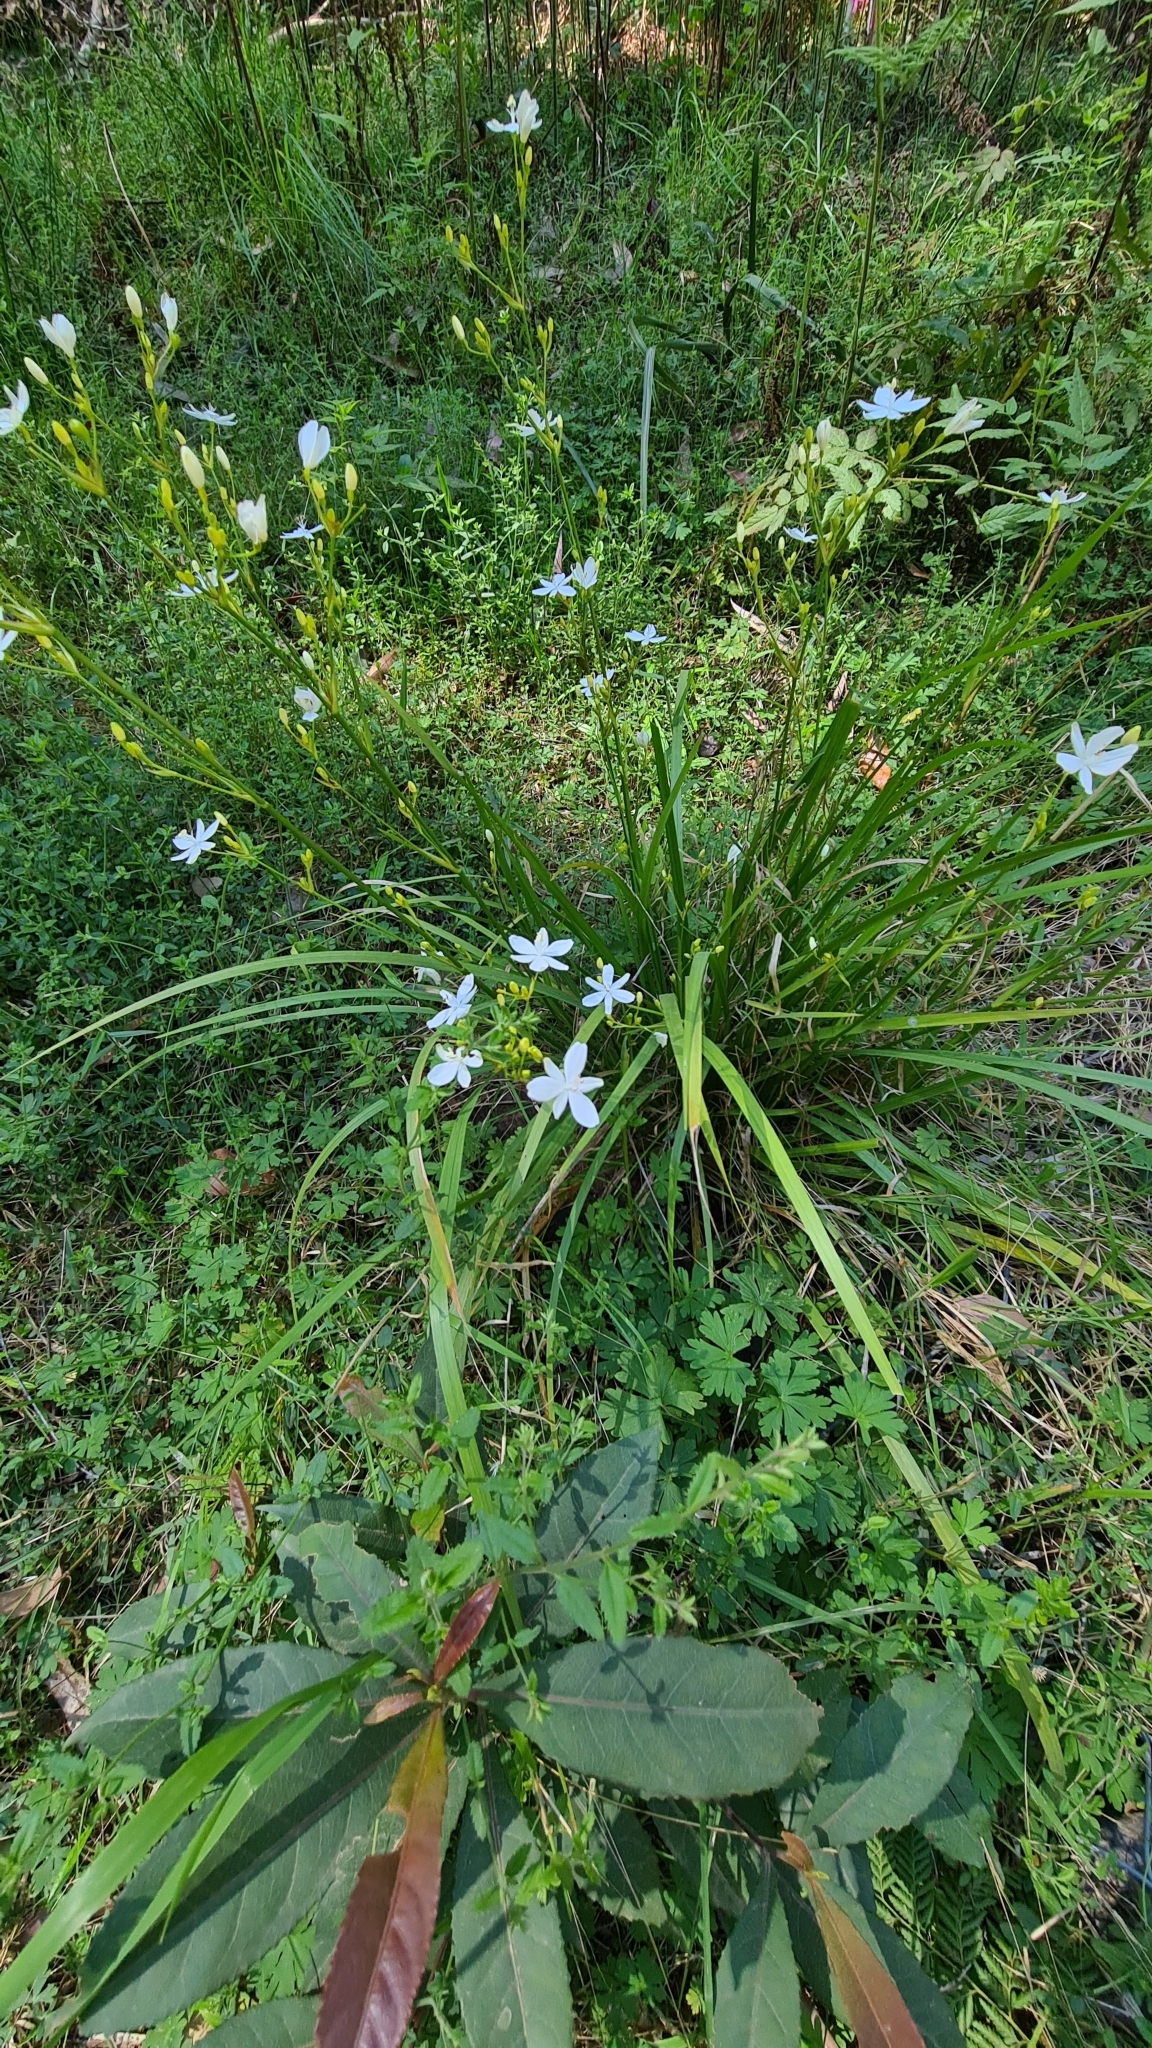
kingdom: Plantae
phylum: Tracheophyta
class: Liliopsida
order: Asparagales
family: Iridaceae
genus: Libertia
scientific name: Libertia paniculata
